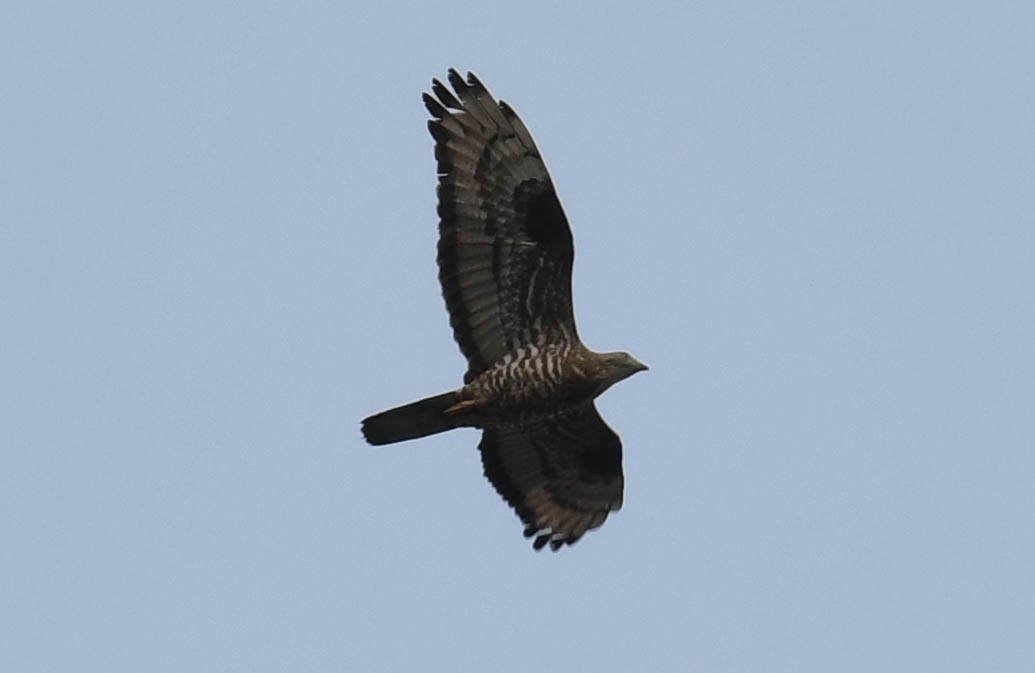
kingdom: Animalia
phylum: Chordata
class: Aves
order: Accipitriformes
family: Accipitridae
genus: Pernis
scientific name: Pernis apivorus
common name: European honey buzzard
